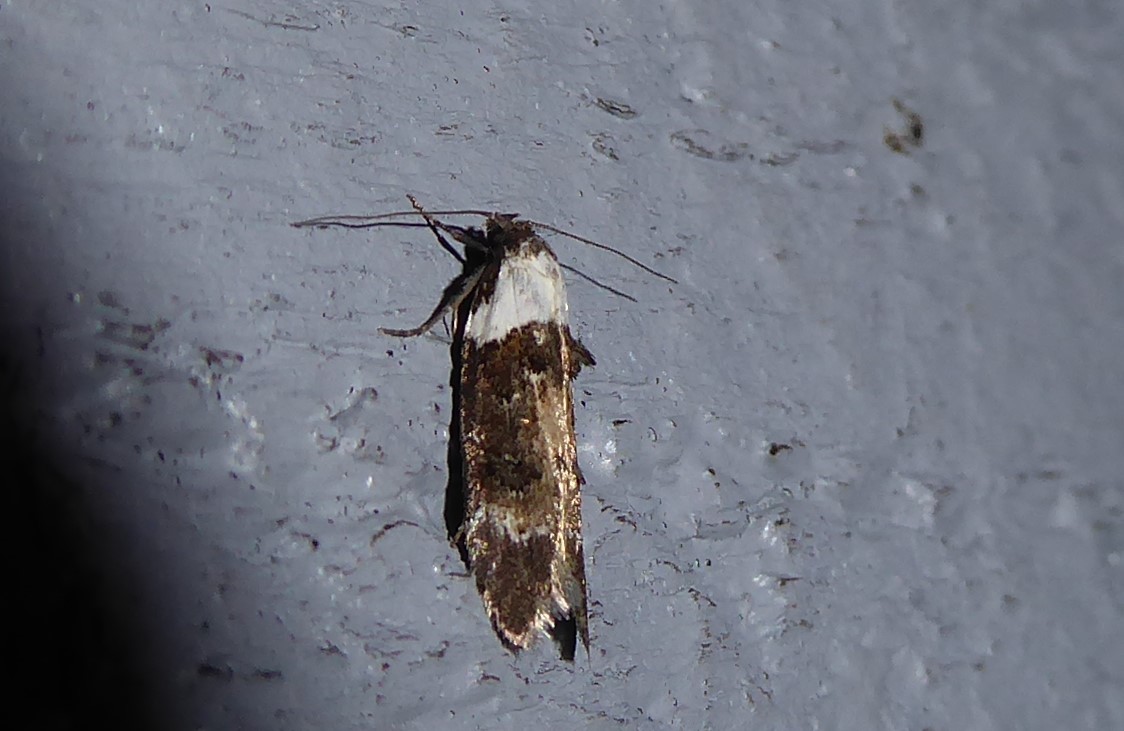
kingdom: Animalia
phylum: Arthropoda
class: Insecta
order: Lepidoptera
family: Oecophoridae
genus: Trachypepla
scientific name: Trachypepla conspicuella
